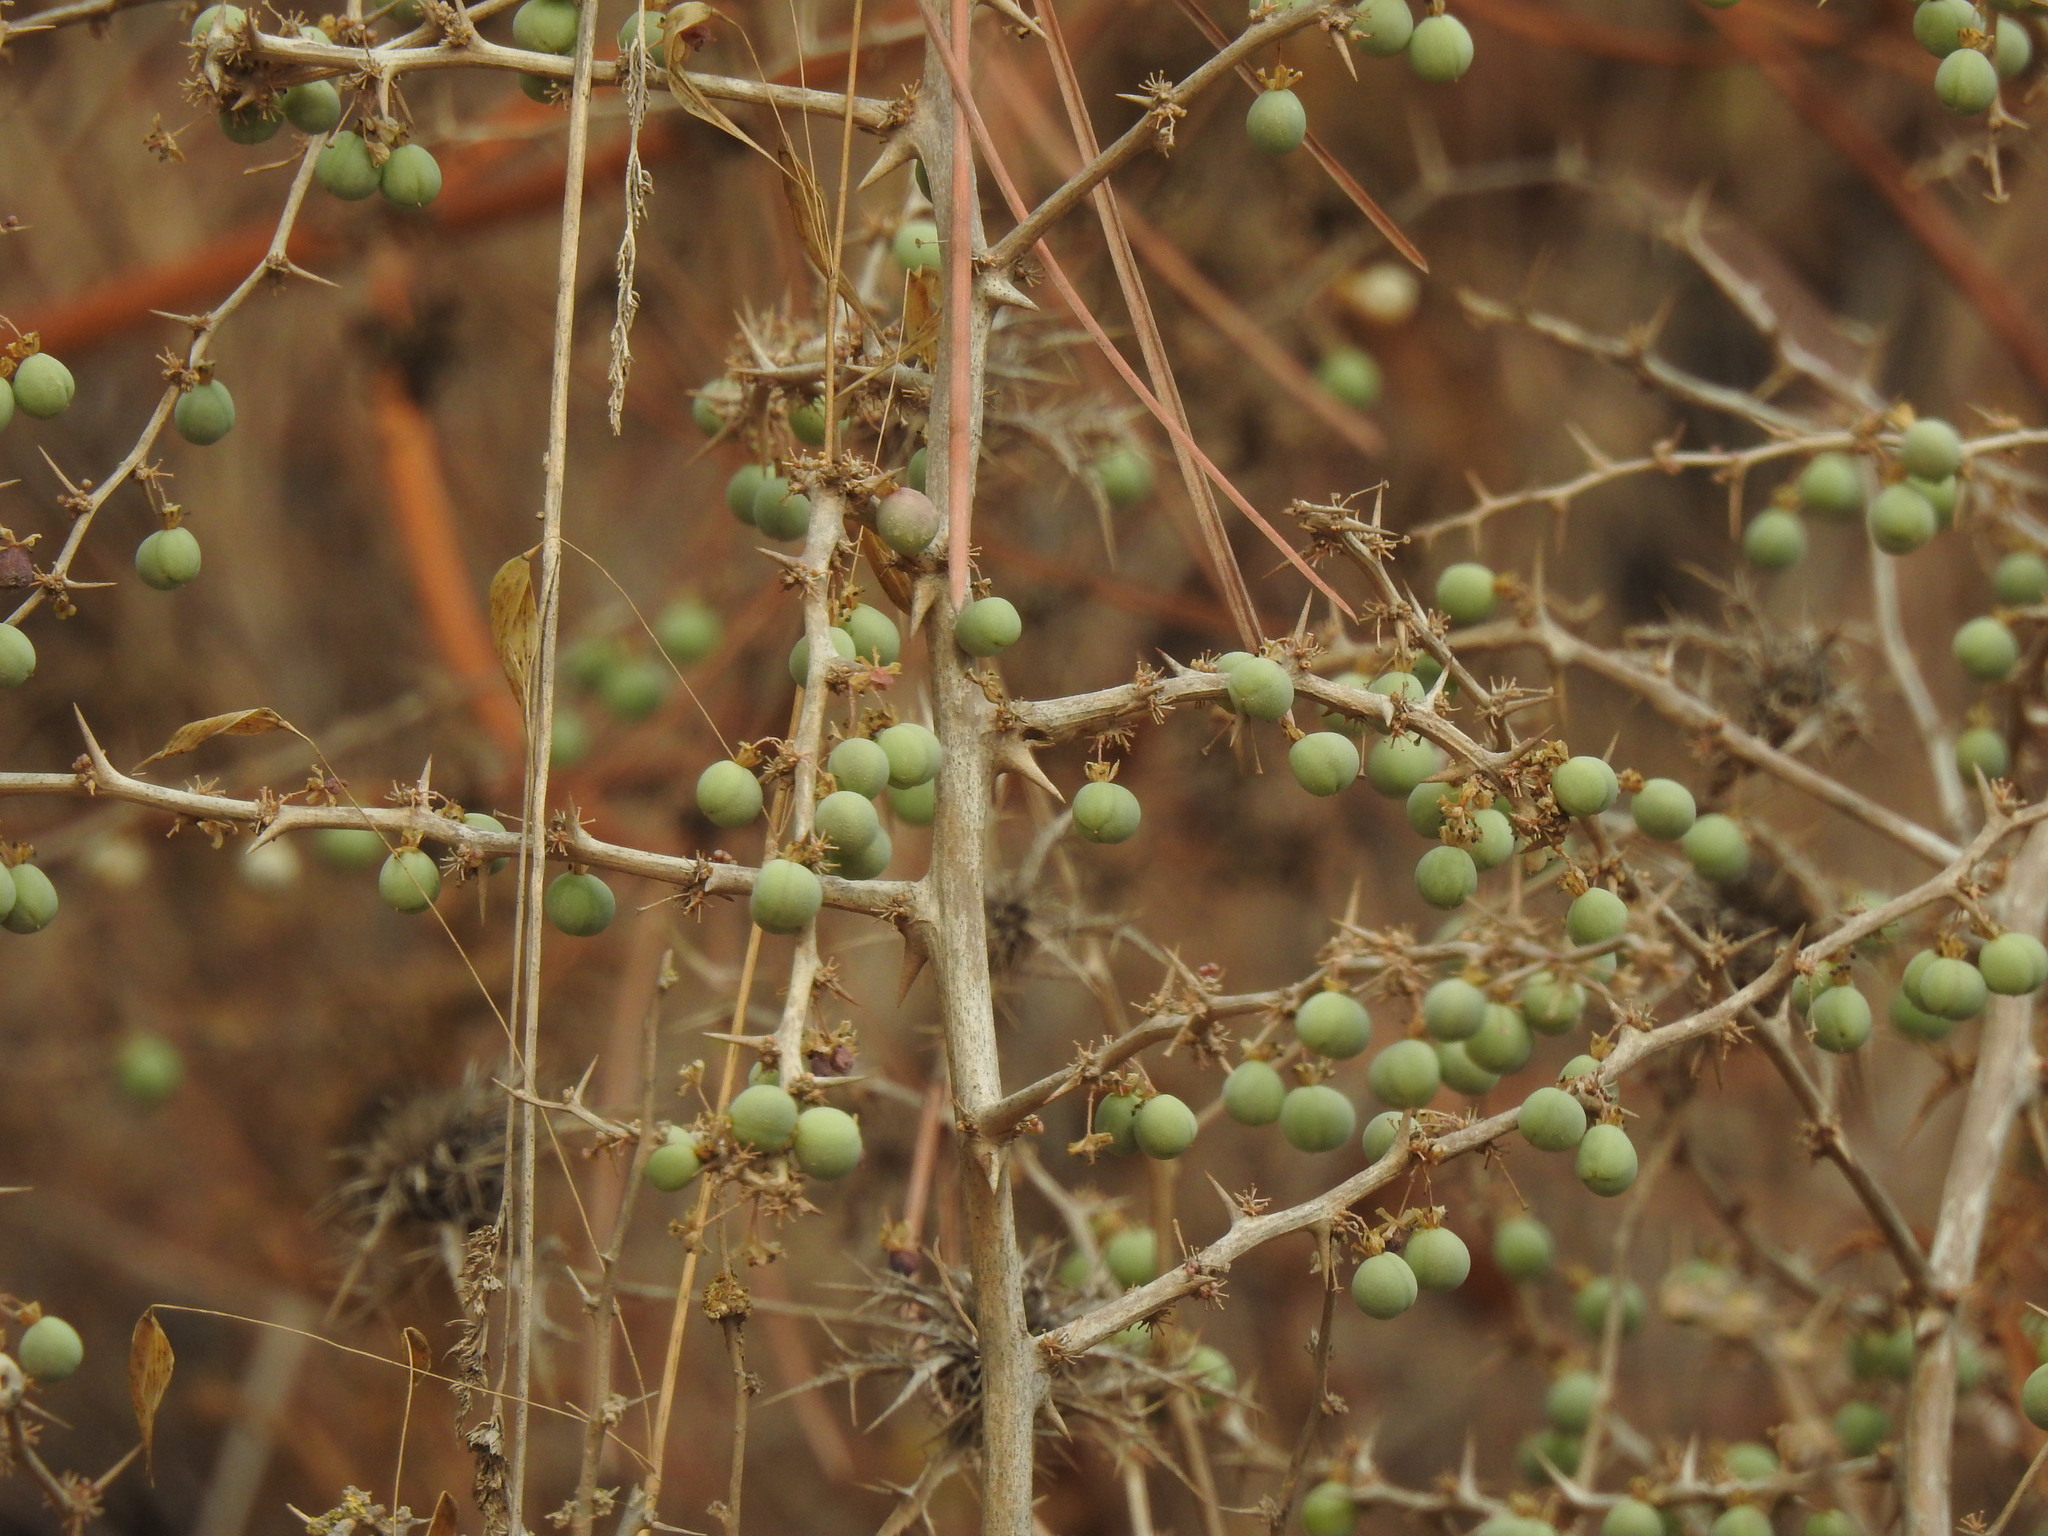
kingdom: Plantae
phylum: Tracheophyta
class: Liliopsida
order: Asparagales
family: Asparagaceae
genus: Asparagus
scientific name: Asparagus albus
